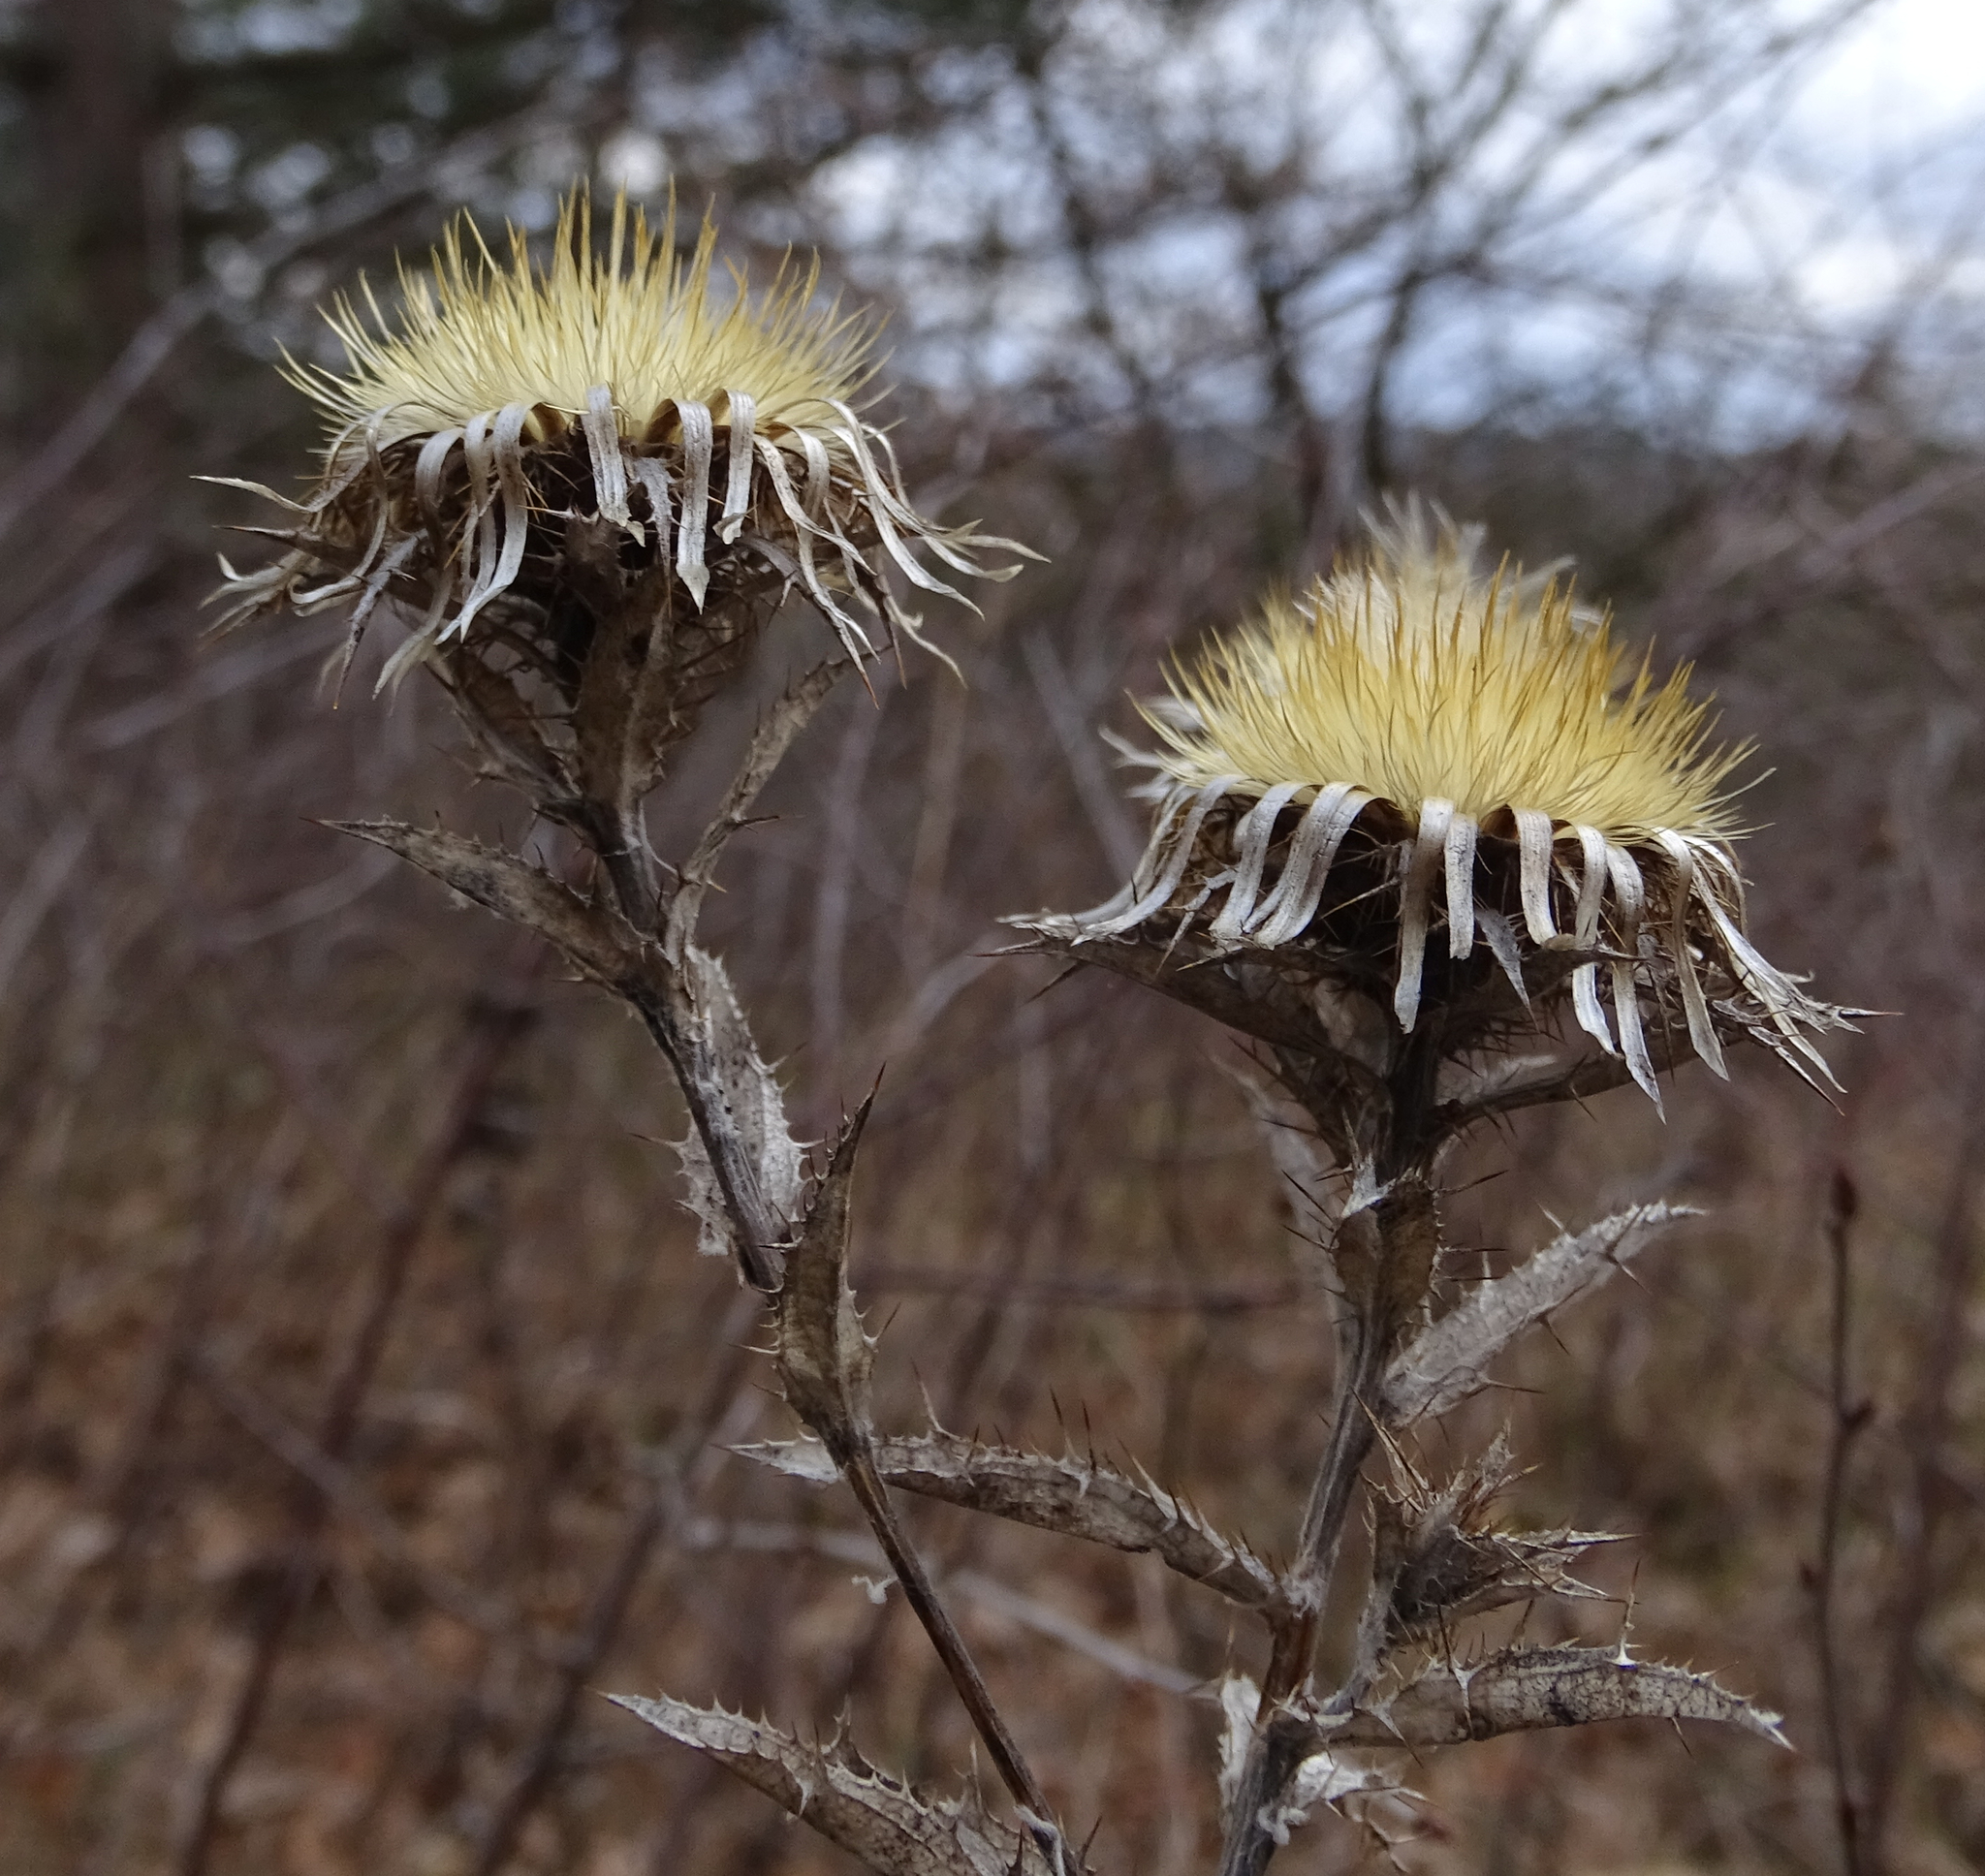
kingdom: Plantae
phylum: Tracheophyta
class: Magnoliopsida
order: Asterales
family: Asteraceae
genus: Carlina
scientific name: Carlina vulgaris
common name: Carline thistle
